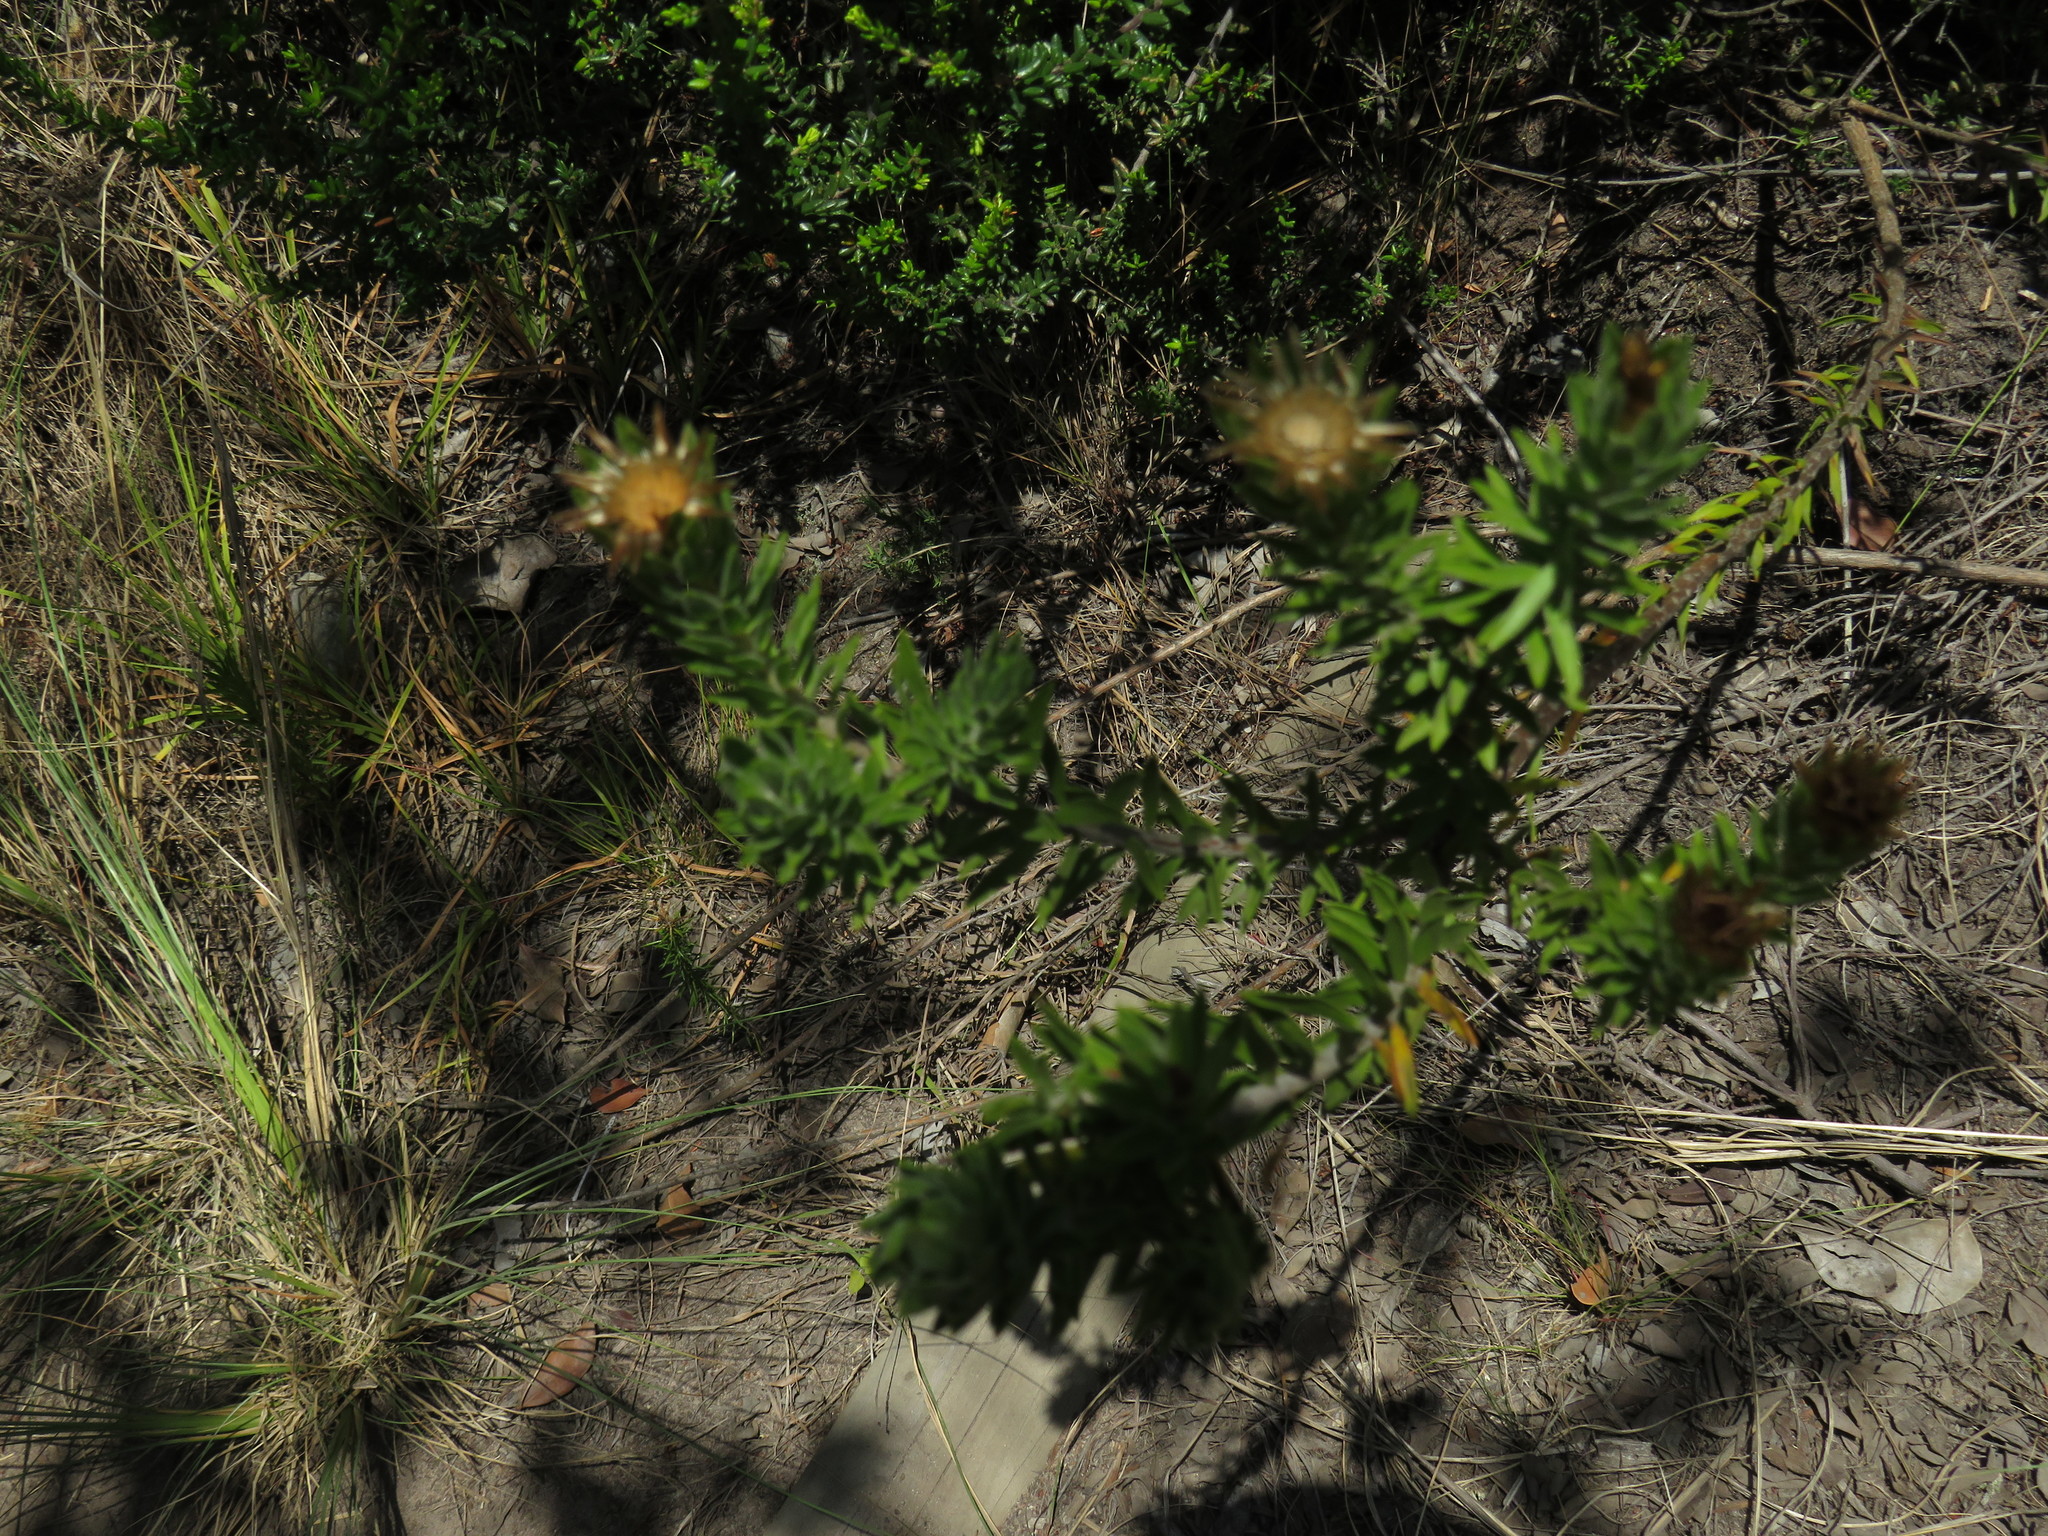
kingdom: Plantae
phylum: Tracheophyta
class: Magnoliopsida
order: Asterales
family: Asteraceae
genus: Oedera
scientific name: Oedera calycina
